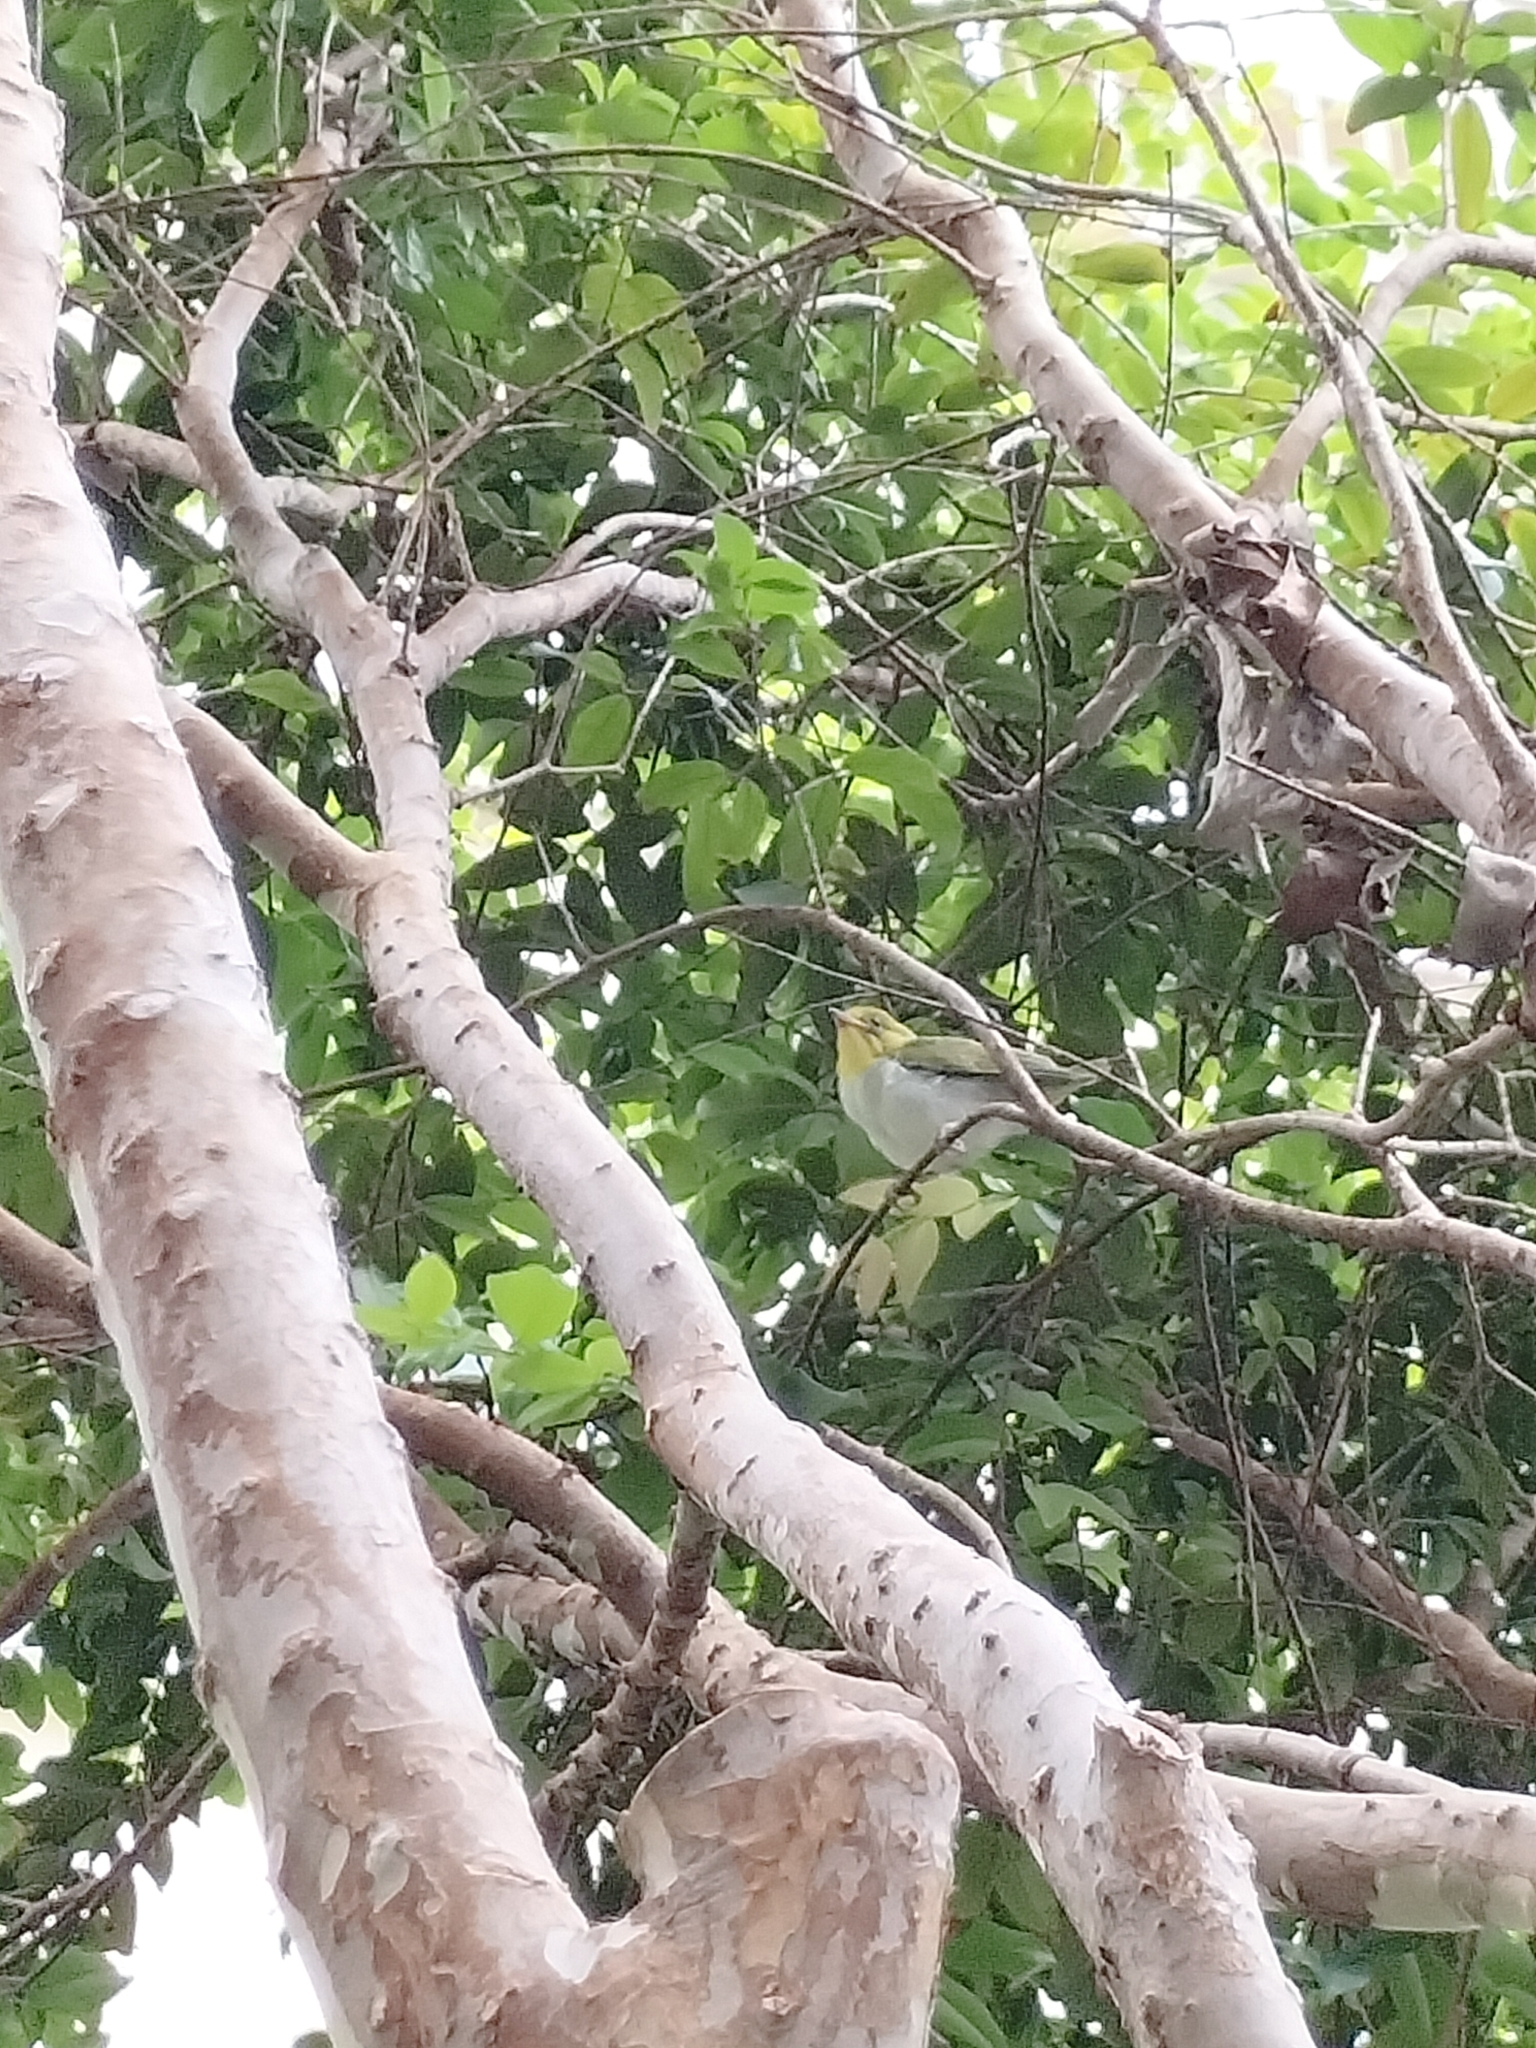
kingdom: Animalia
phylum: Chordata
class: Aves
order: Passeriformes
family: Zosteropidae
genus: Zosterops
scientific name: Zosterops simplex
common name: Swinhoe's white-eye
